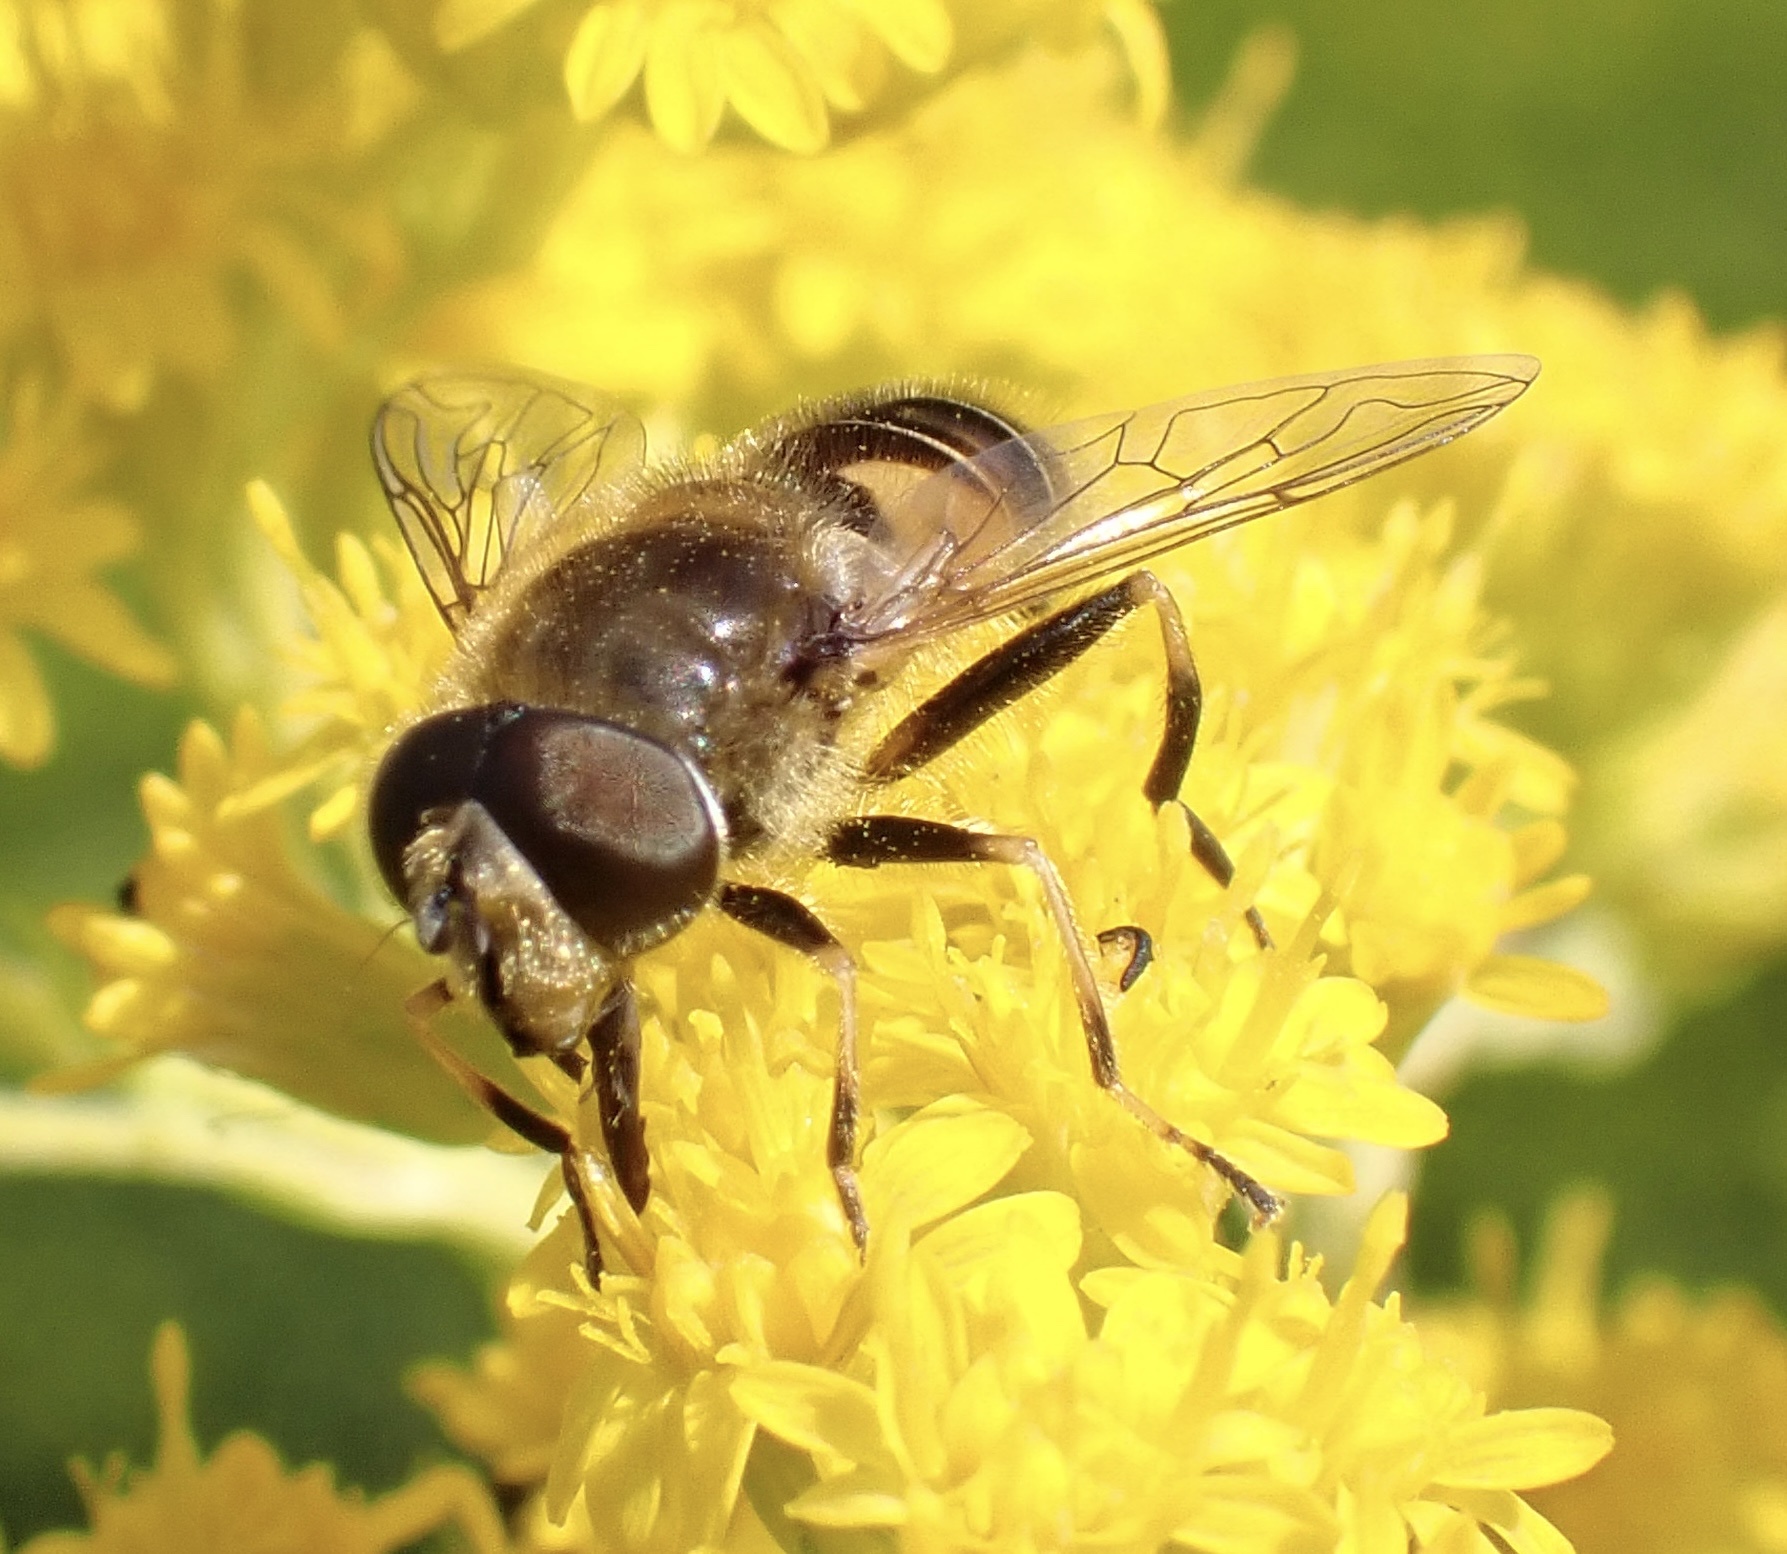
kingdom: Animalia
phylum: Arthropoda
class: Insecta
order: Diptera
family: Syrphidae
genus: Eristalis
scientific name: Eristalis nemorum
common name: Orange-spined drone fly
